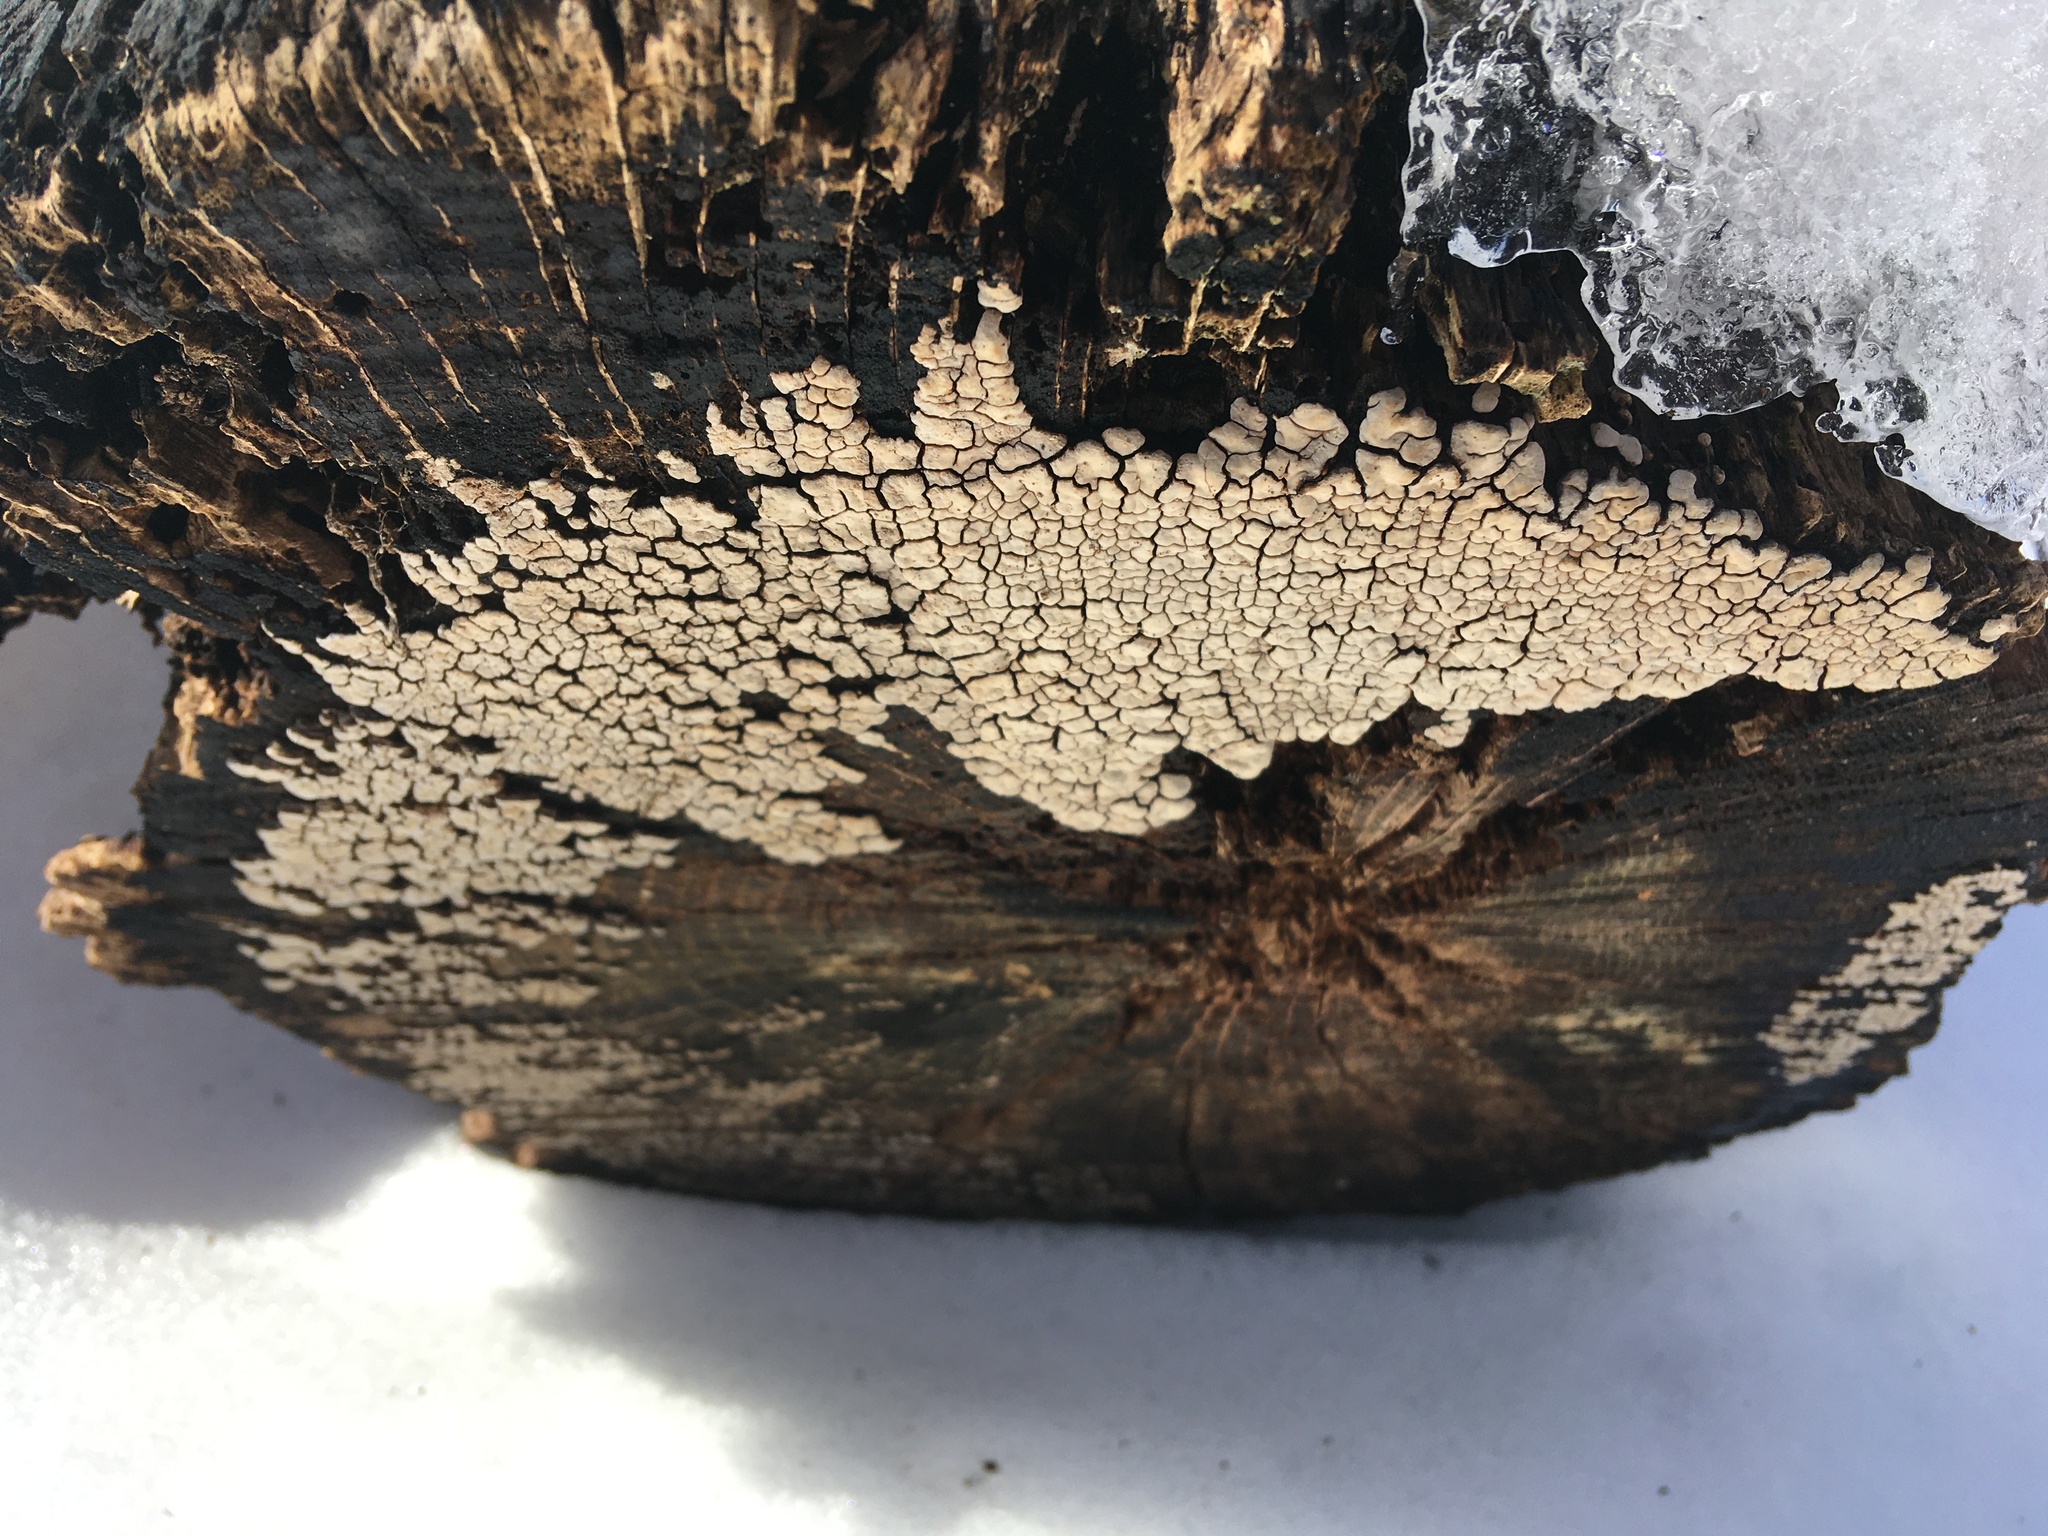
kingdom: Fungi
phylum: Basidiomycota
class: Agaricomycetes
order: Russulales
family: Stereaceae
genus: Xylobolus
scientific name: Xylobolus frustulatus
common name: Ceramic parchment
